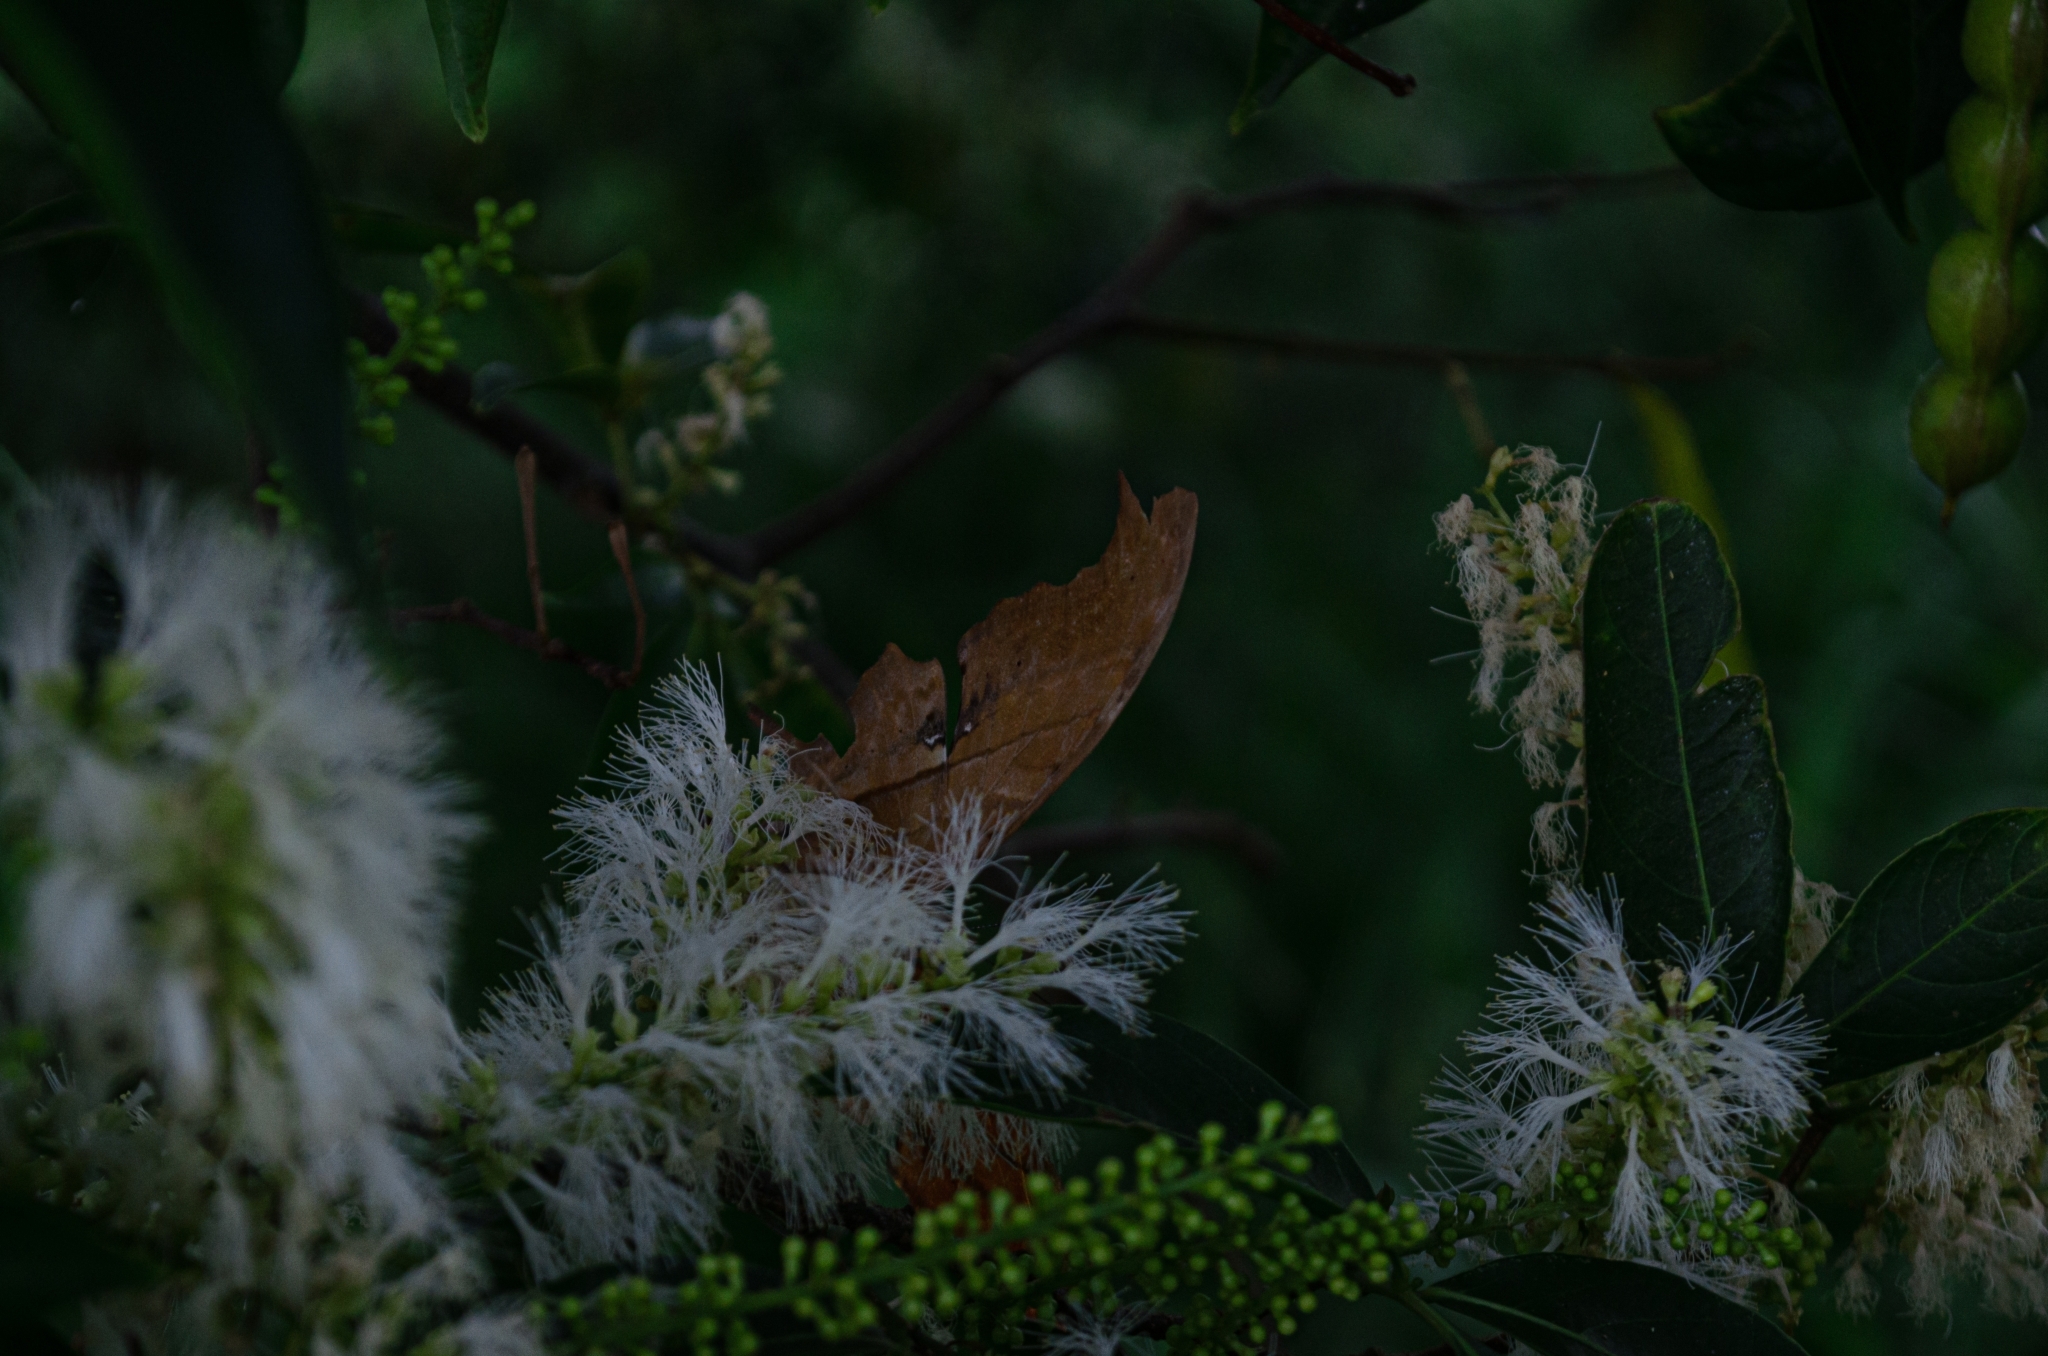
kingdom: Animalia
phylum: Arthropoda
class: Insecta
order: Lepidoptera
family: Nymphalidae
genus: Marpesia
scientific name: Marpesia petreus
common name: Red dagger wing
